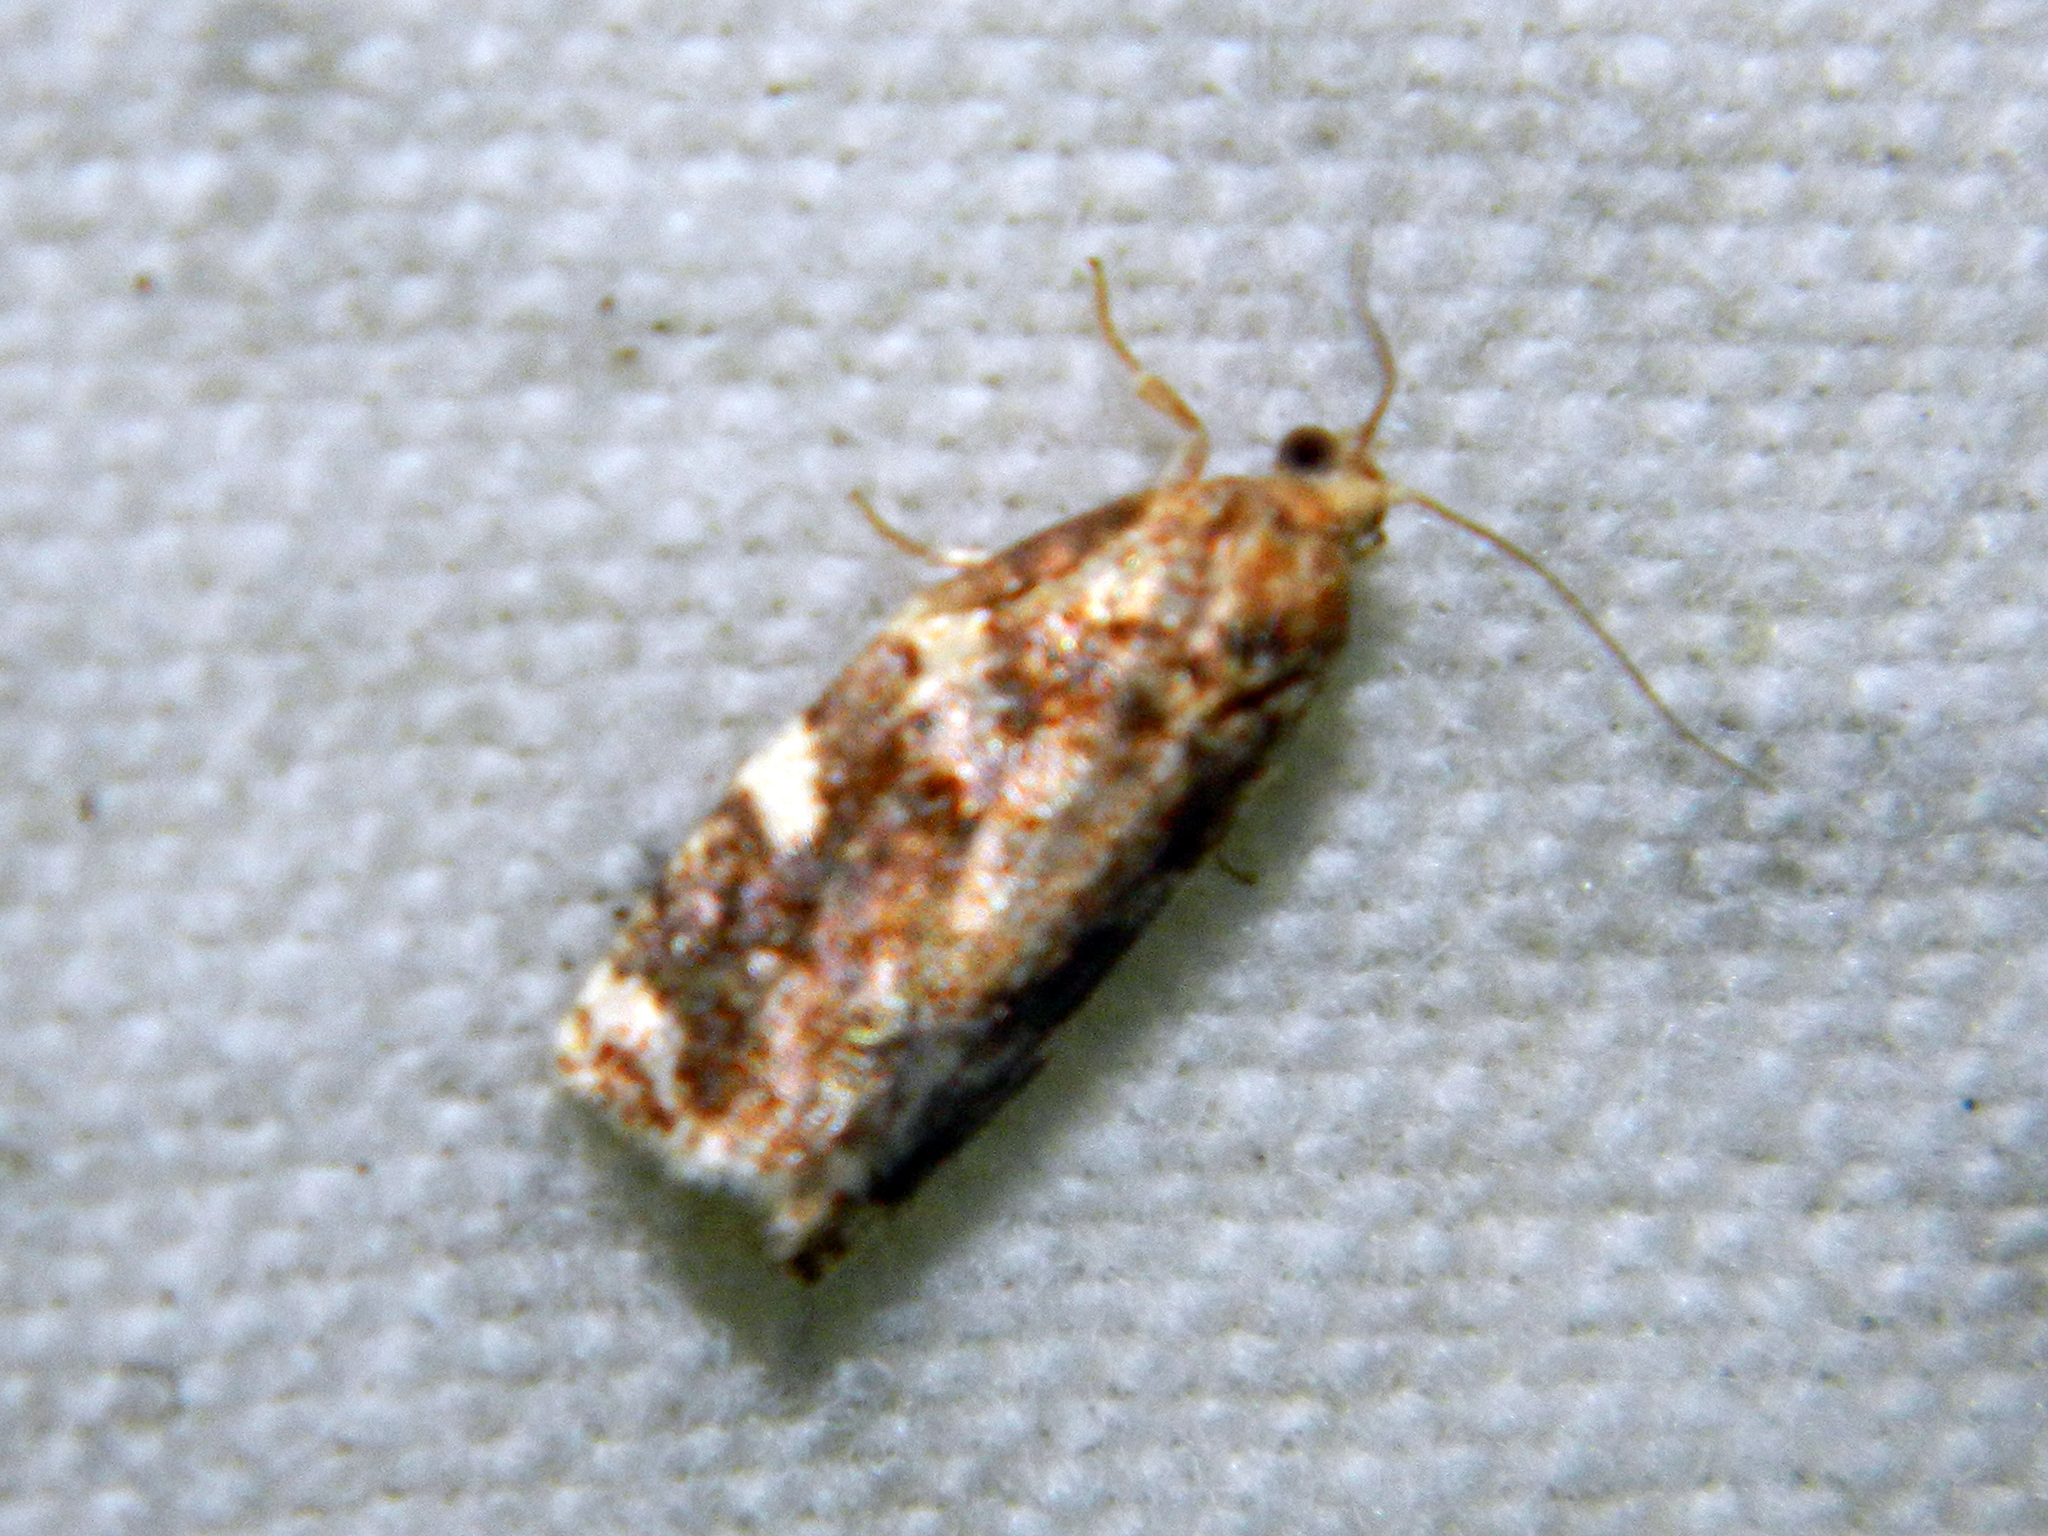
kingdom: Animalia
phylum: Arthropoda
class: Insecta
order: Lepidoptera
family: Tortricidae
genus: Archips
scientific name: Archips argyrospila
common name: Fruit-tree leafroller moth
